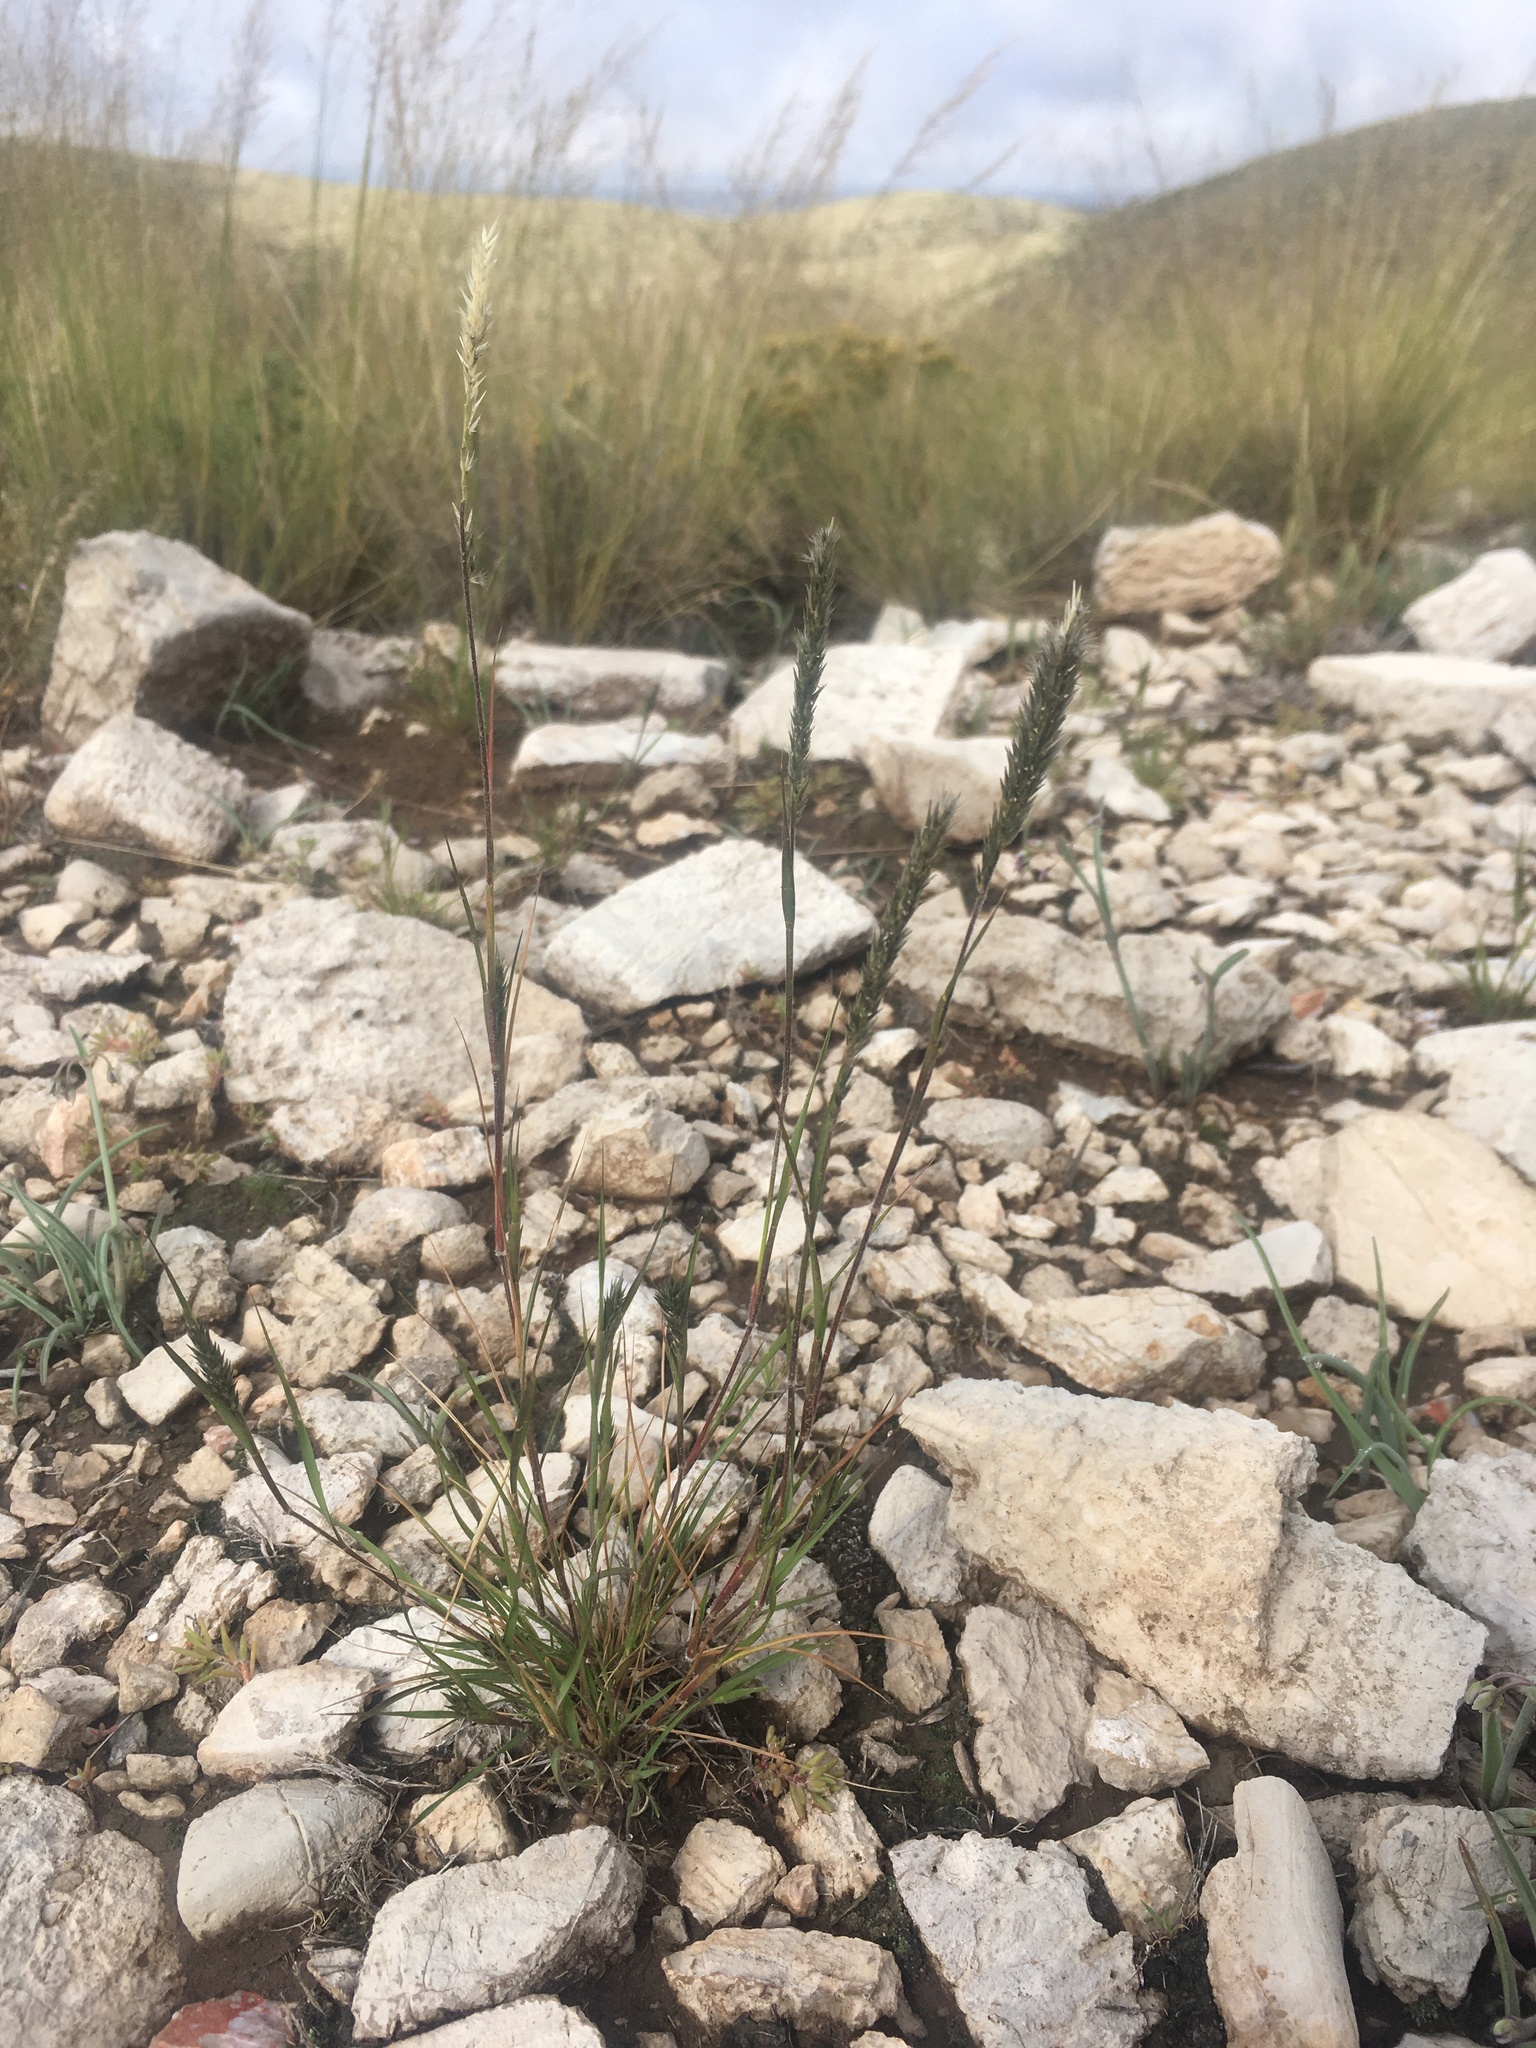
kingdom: Plantae
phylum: Tracheophyta
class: Liliopsida
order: Poales
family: Poaceae
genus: Enneapogon
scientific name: Enneapogon desvauxii
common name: Feather pappus grass
